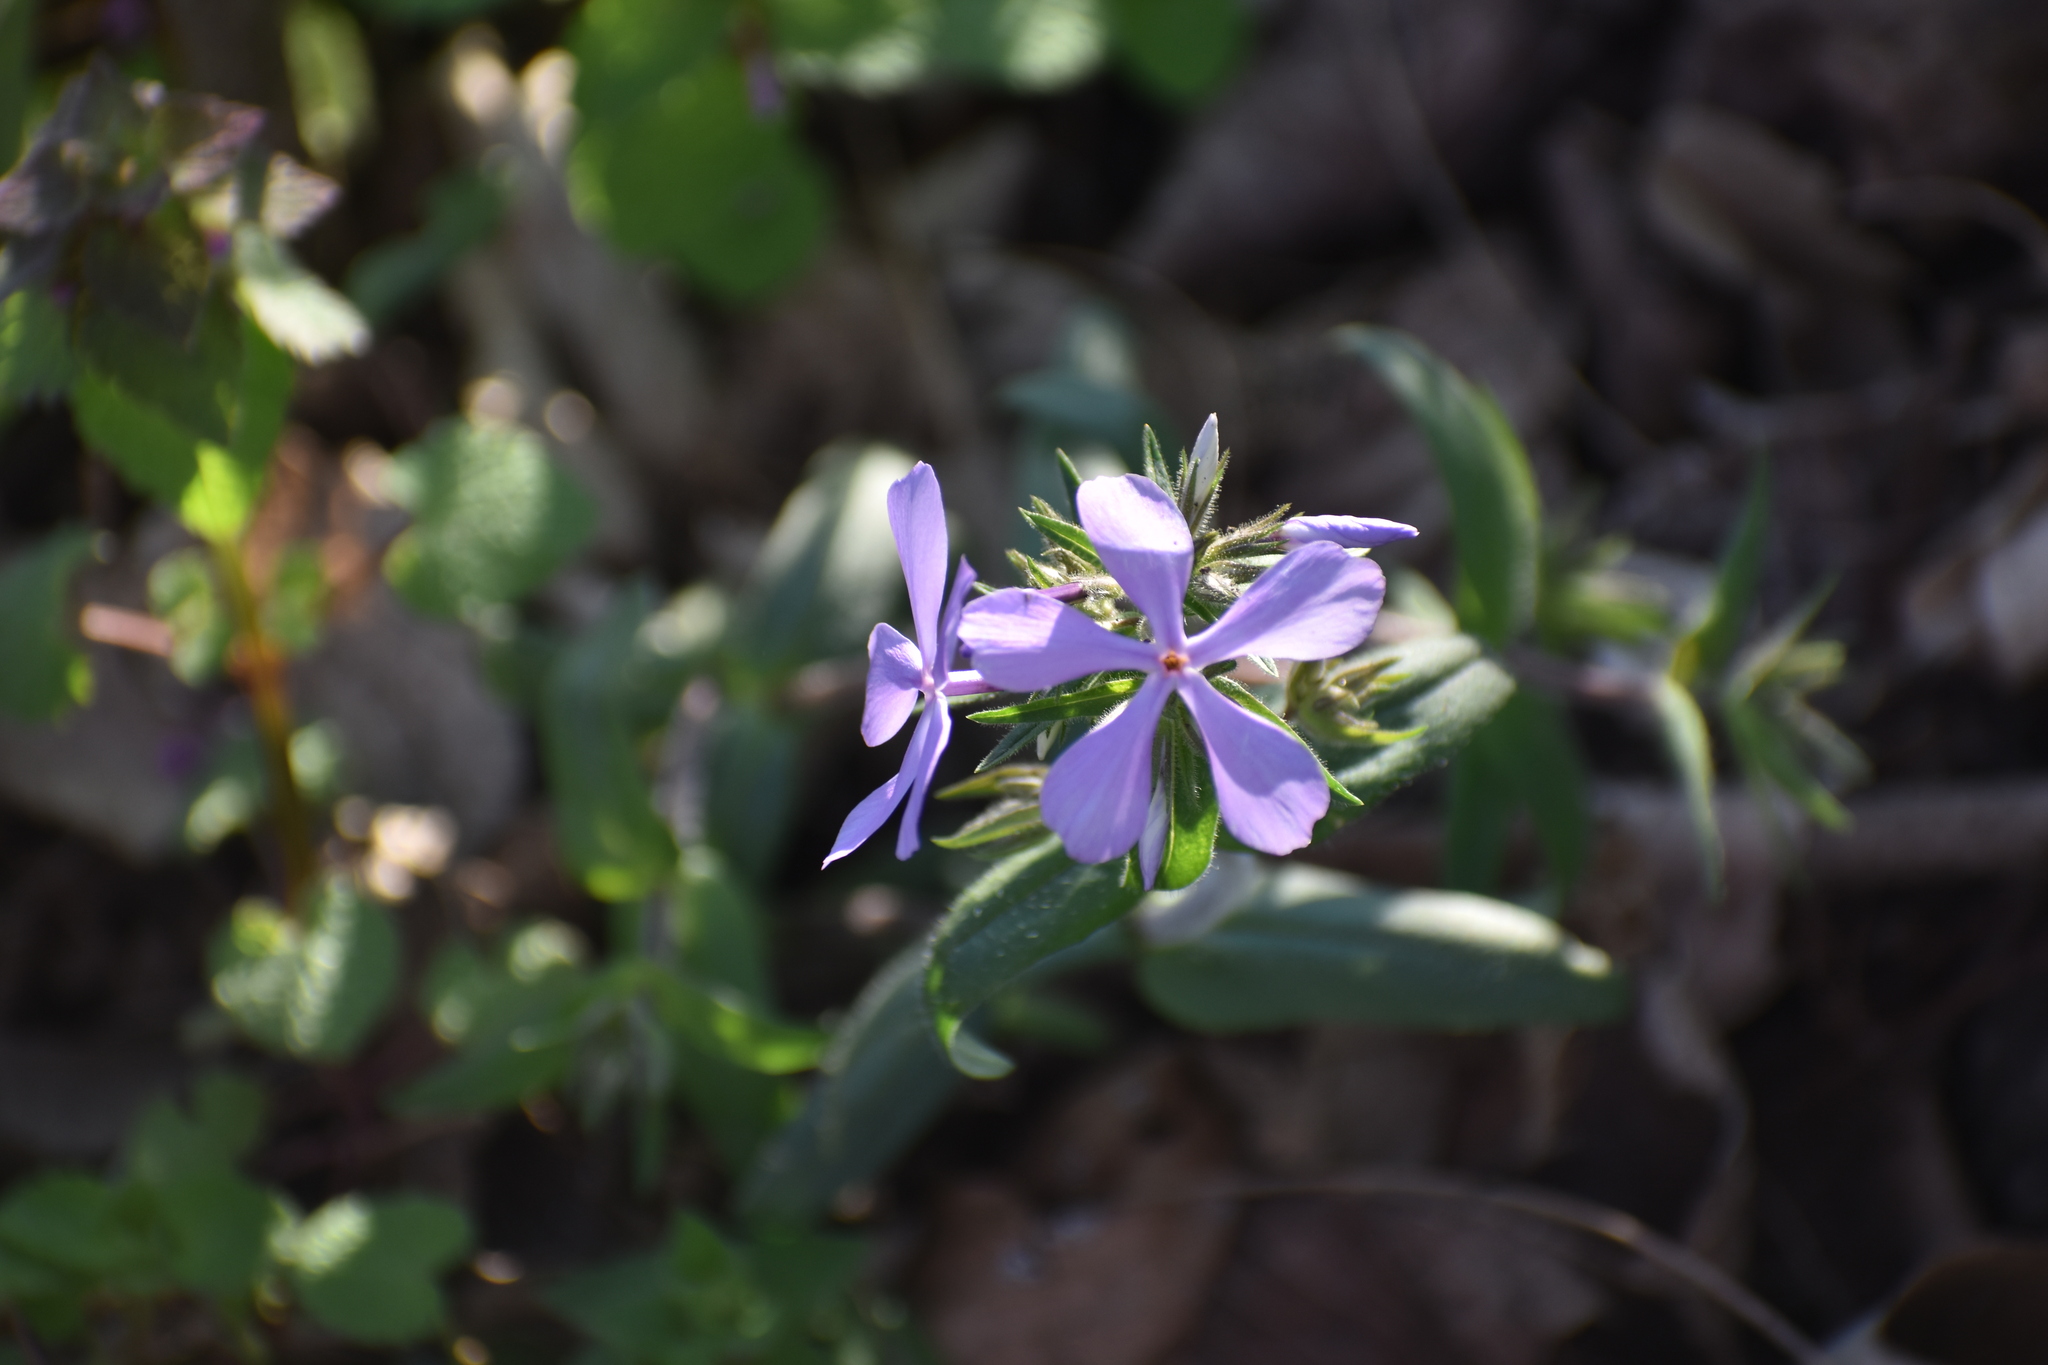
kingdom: Plantae
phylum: Tracheophyta
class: Magnoliopsida
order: Ericales
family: Polemoniaceae
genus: Phlox
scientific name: Phlox divaricata
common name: Blue phlox
